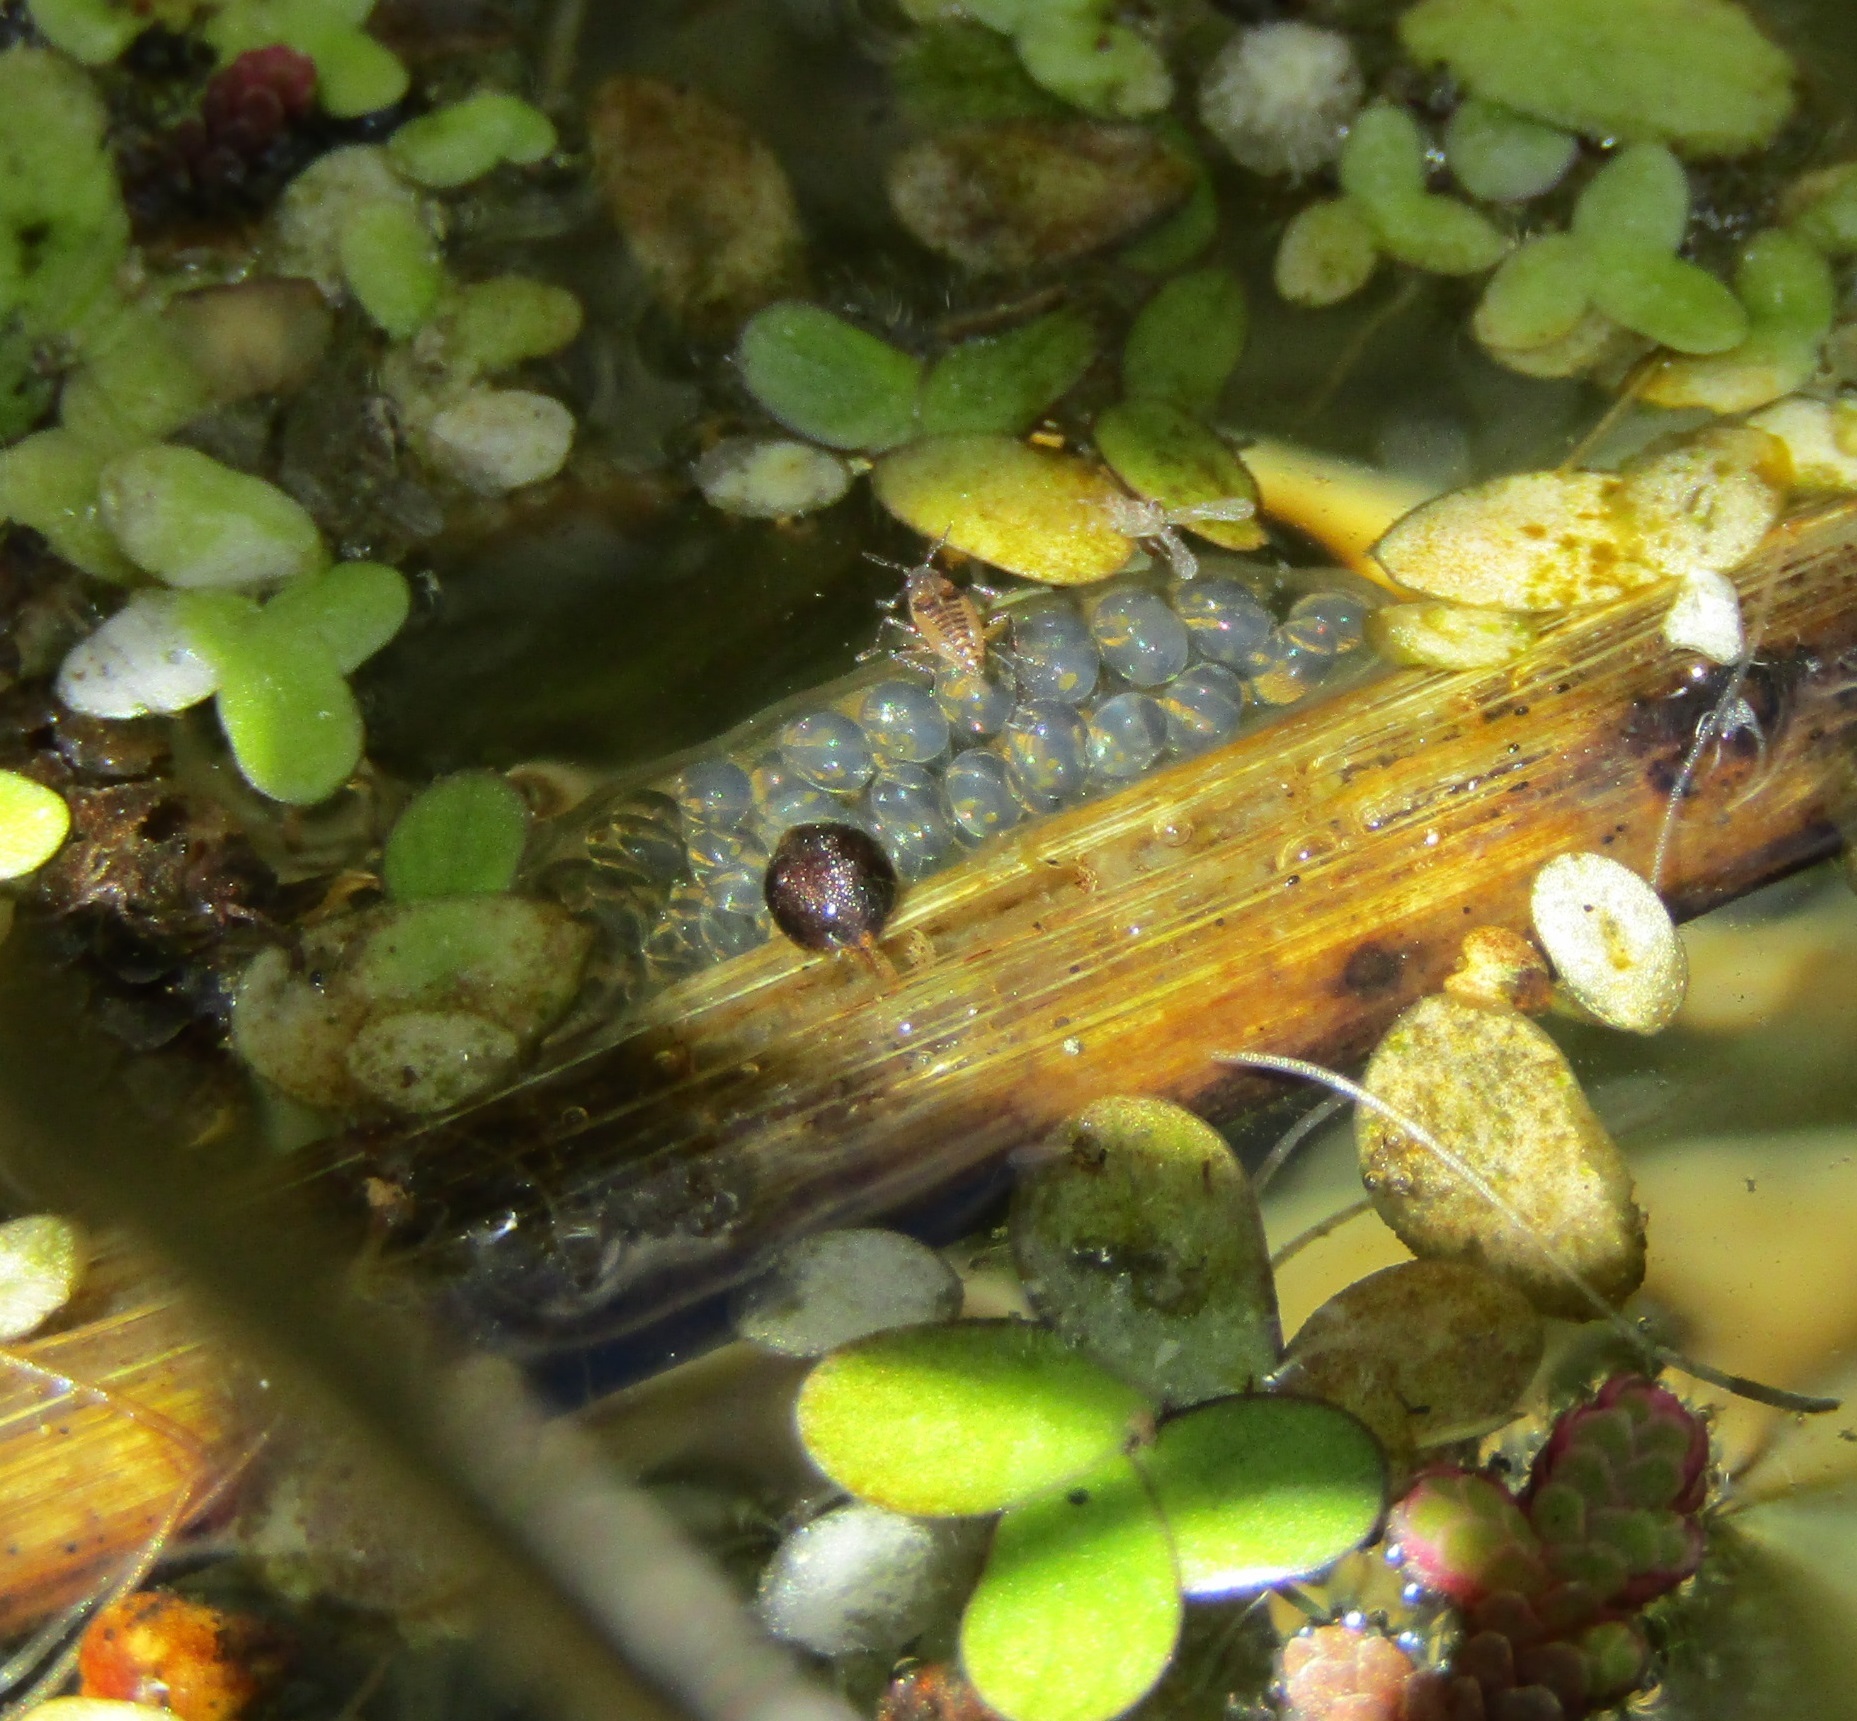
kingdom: Animalia
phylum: Mollusca
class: Gastropoda
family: Lymnaeidae
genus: Lymnaea
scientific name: Lymnaea stagnalis
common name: Great pond snail
